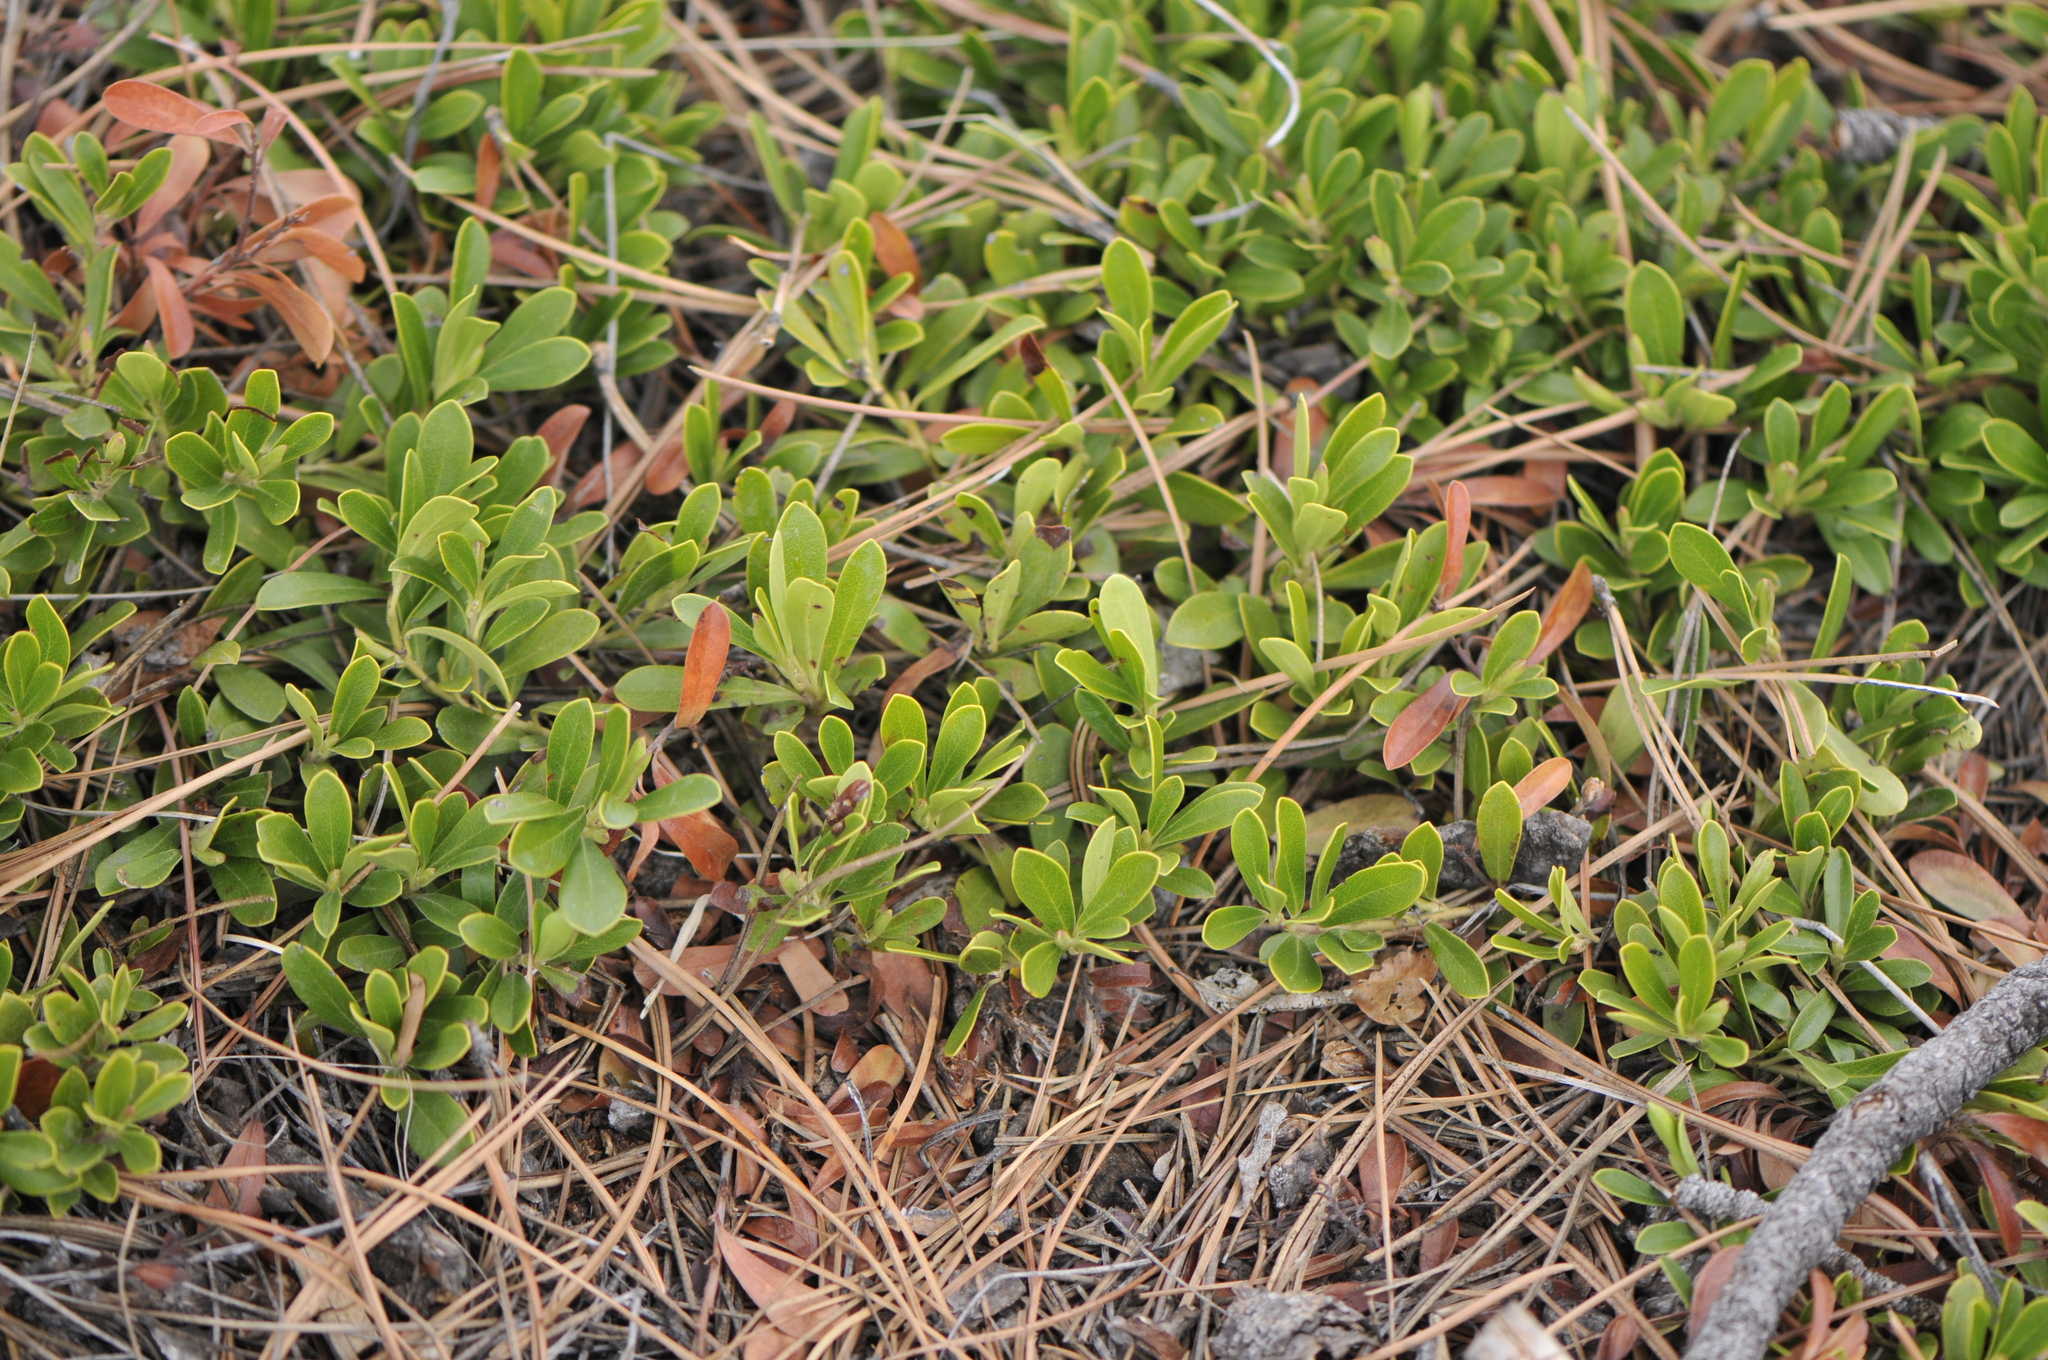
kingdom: Plantae
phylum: Tracheophyta
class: Magnoliopsida
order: Ericales
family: Ericaceae
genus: Arctostaphylos
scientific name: Arctostaphylos uva-ursi
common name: Bearberry
